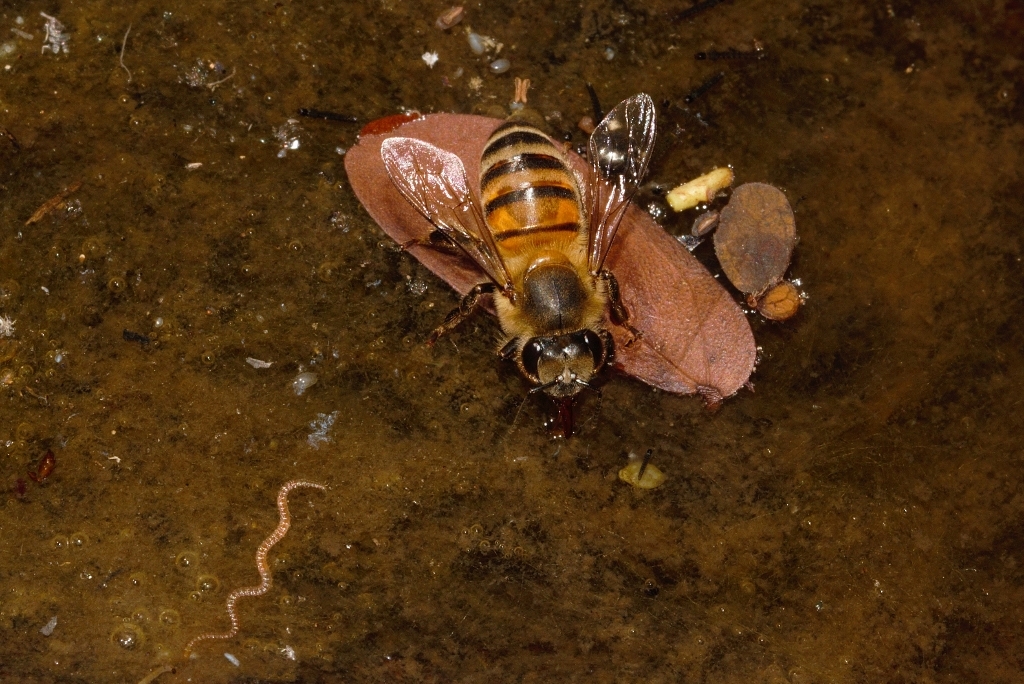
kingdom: Animalia
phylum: Arthropoda
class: Insecta
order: Hymenoptera
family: Apidae
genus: Apis
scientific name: Apis mellifera
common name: Honey bee
